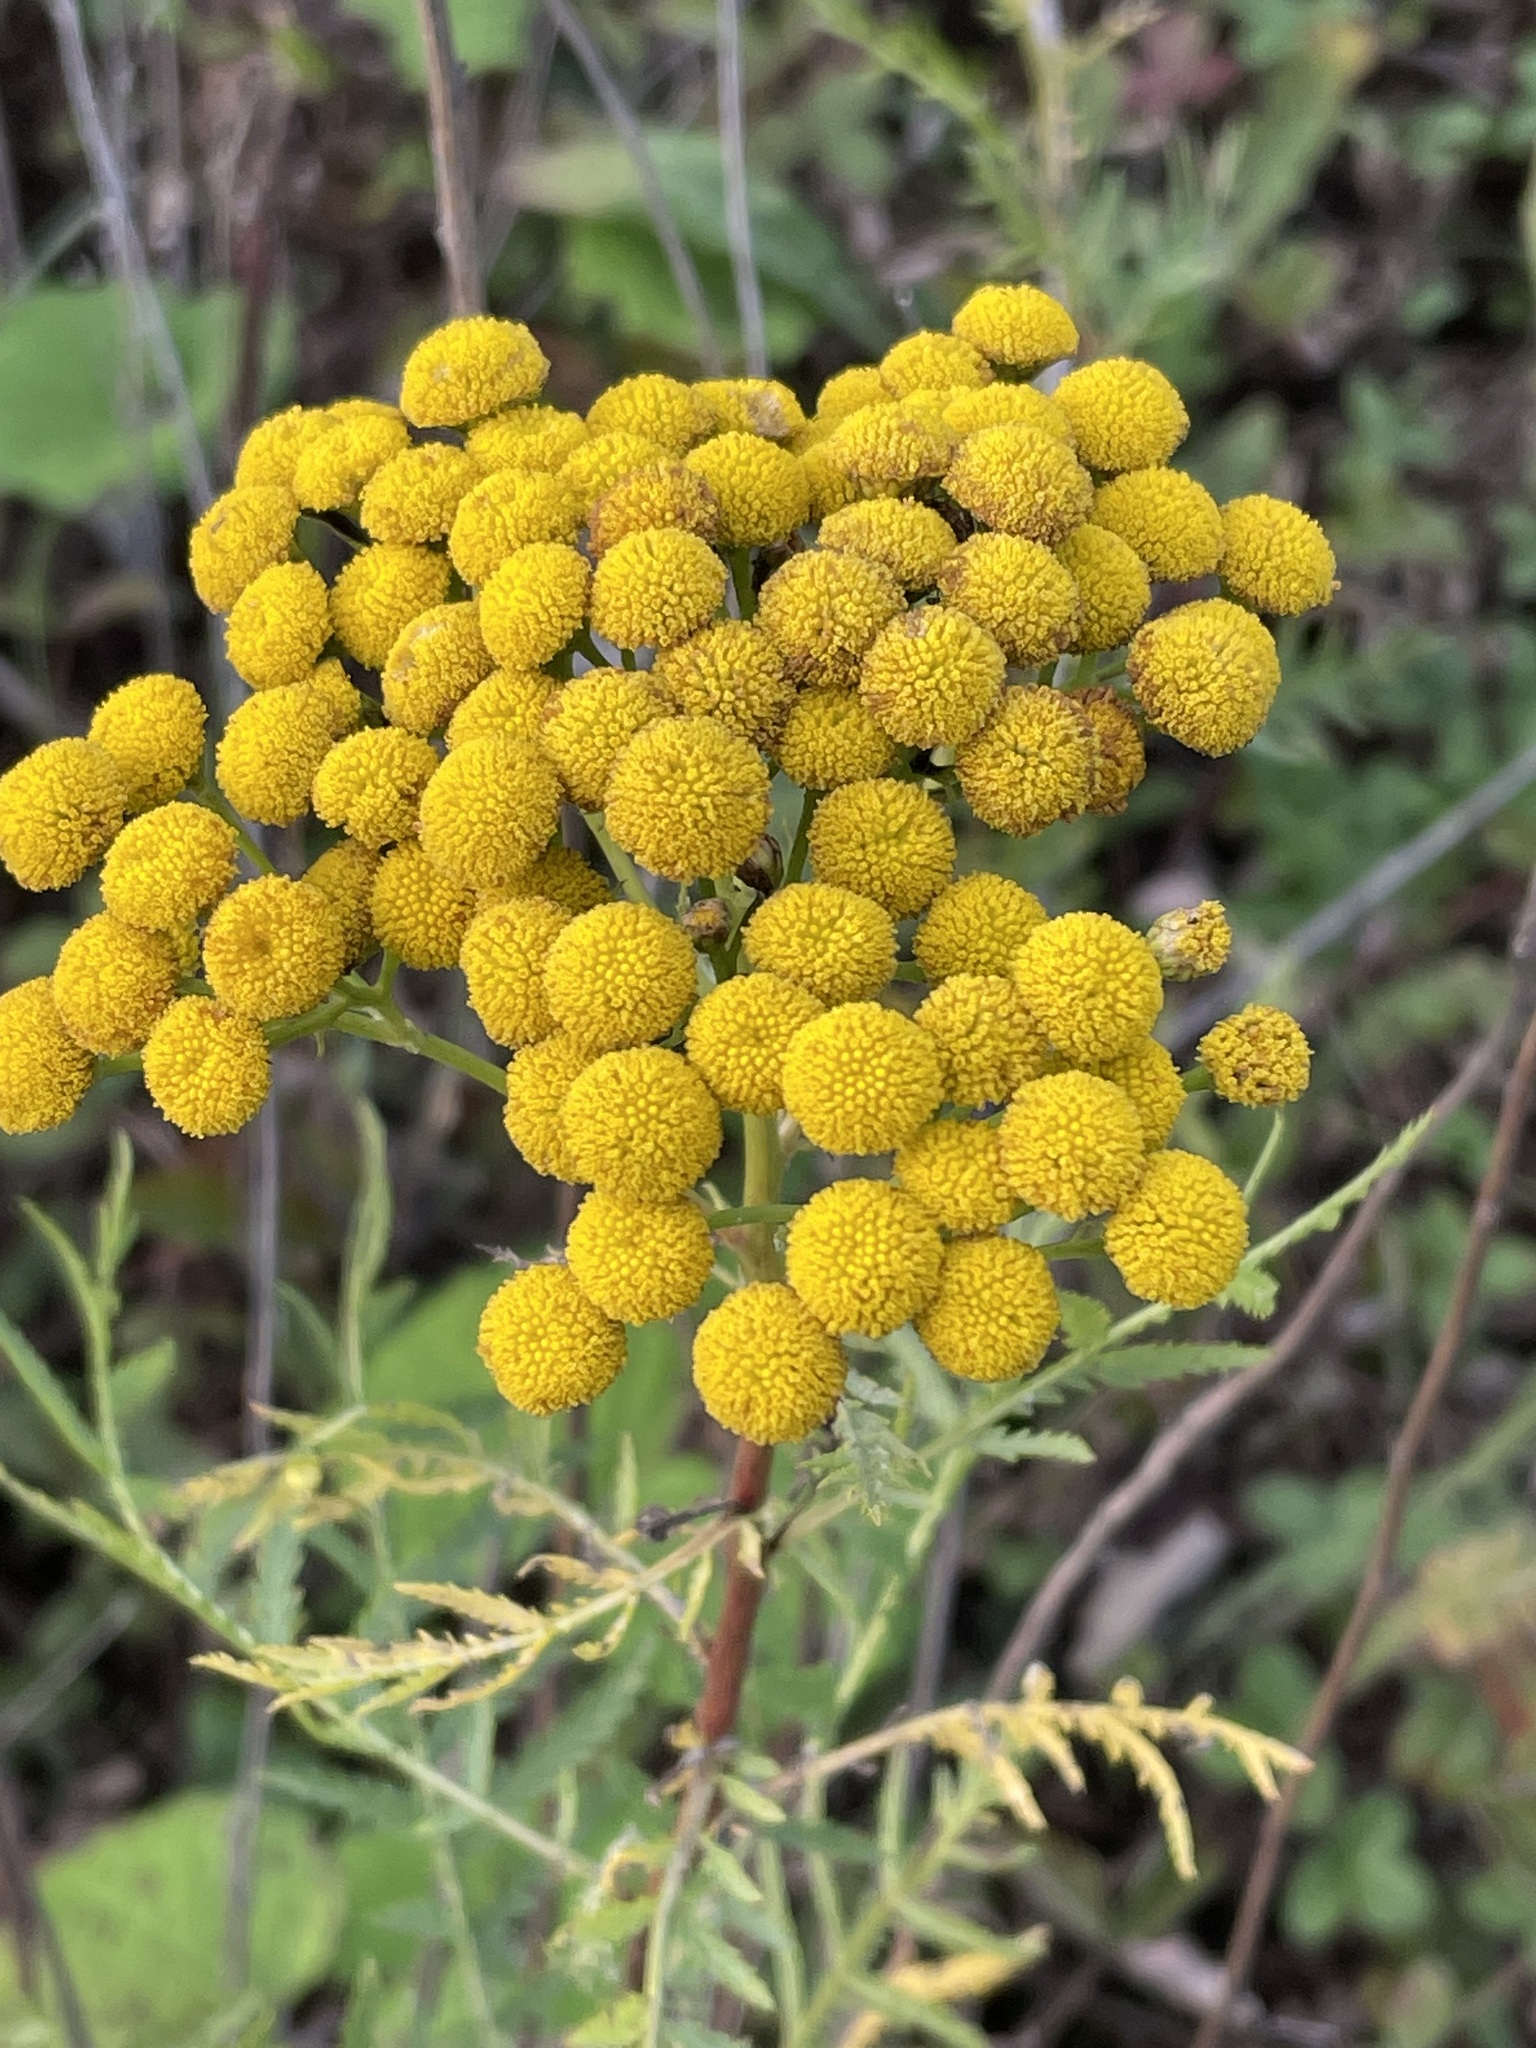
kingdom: Plantae
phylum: Tracheophyta
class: Magnoliopsida
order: Asterales
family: Asteraceae
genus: Tanacetum
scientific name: Tanacetum vulgare
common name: Common tansy
